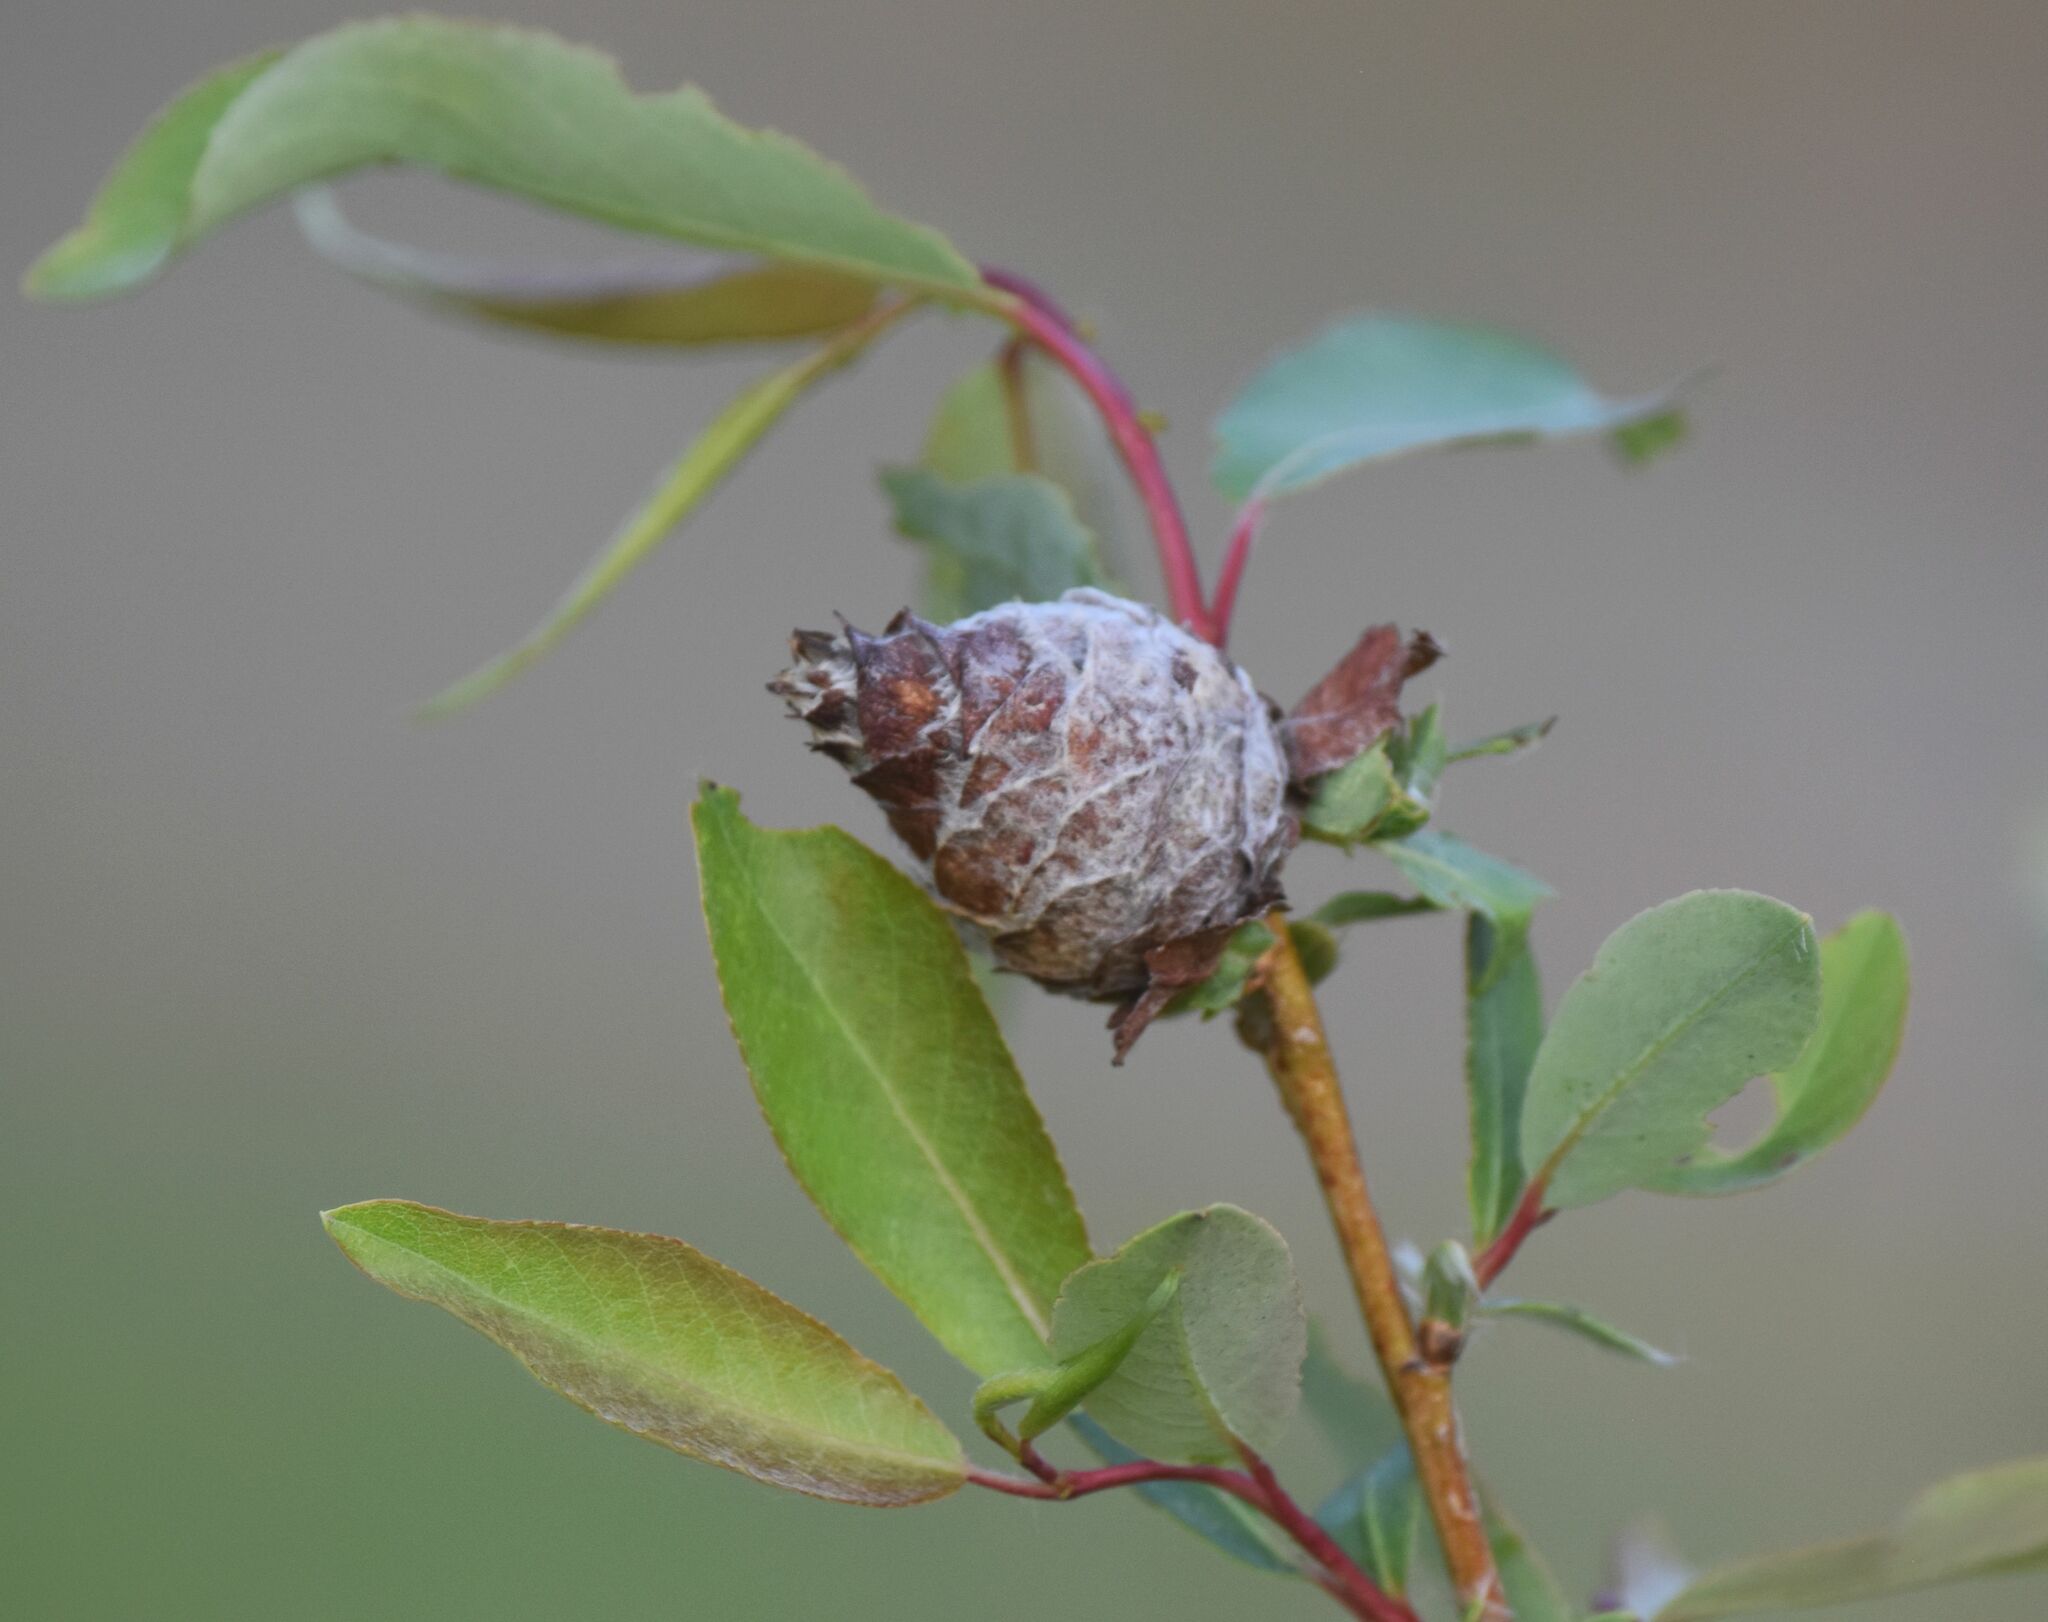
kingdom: Animalia
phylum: Arthropoda
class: Insecta
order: Diptera
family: Cecidomyiidae
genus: Rabdophaga
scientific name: Rabdophaga strobiloides
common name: Willow pinecone gall midge
